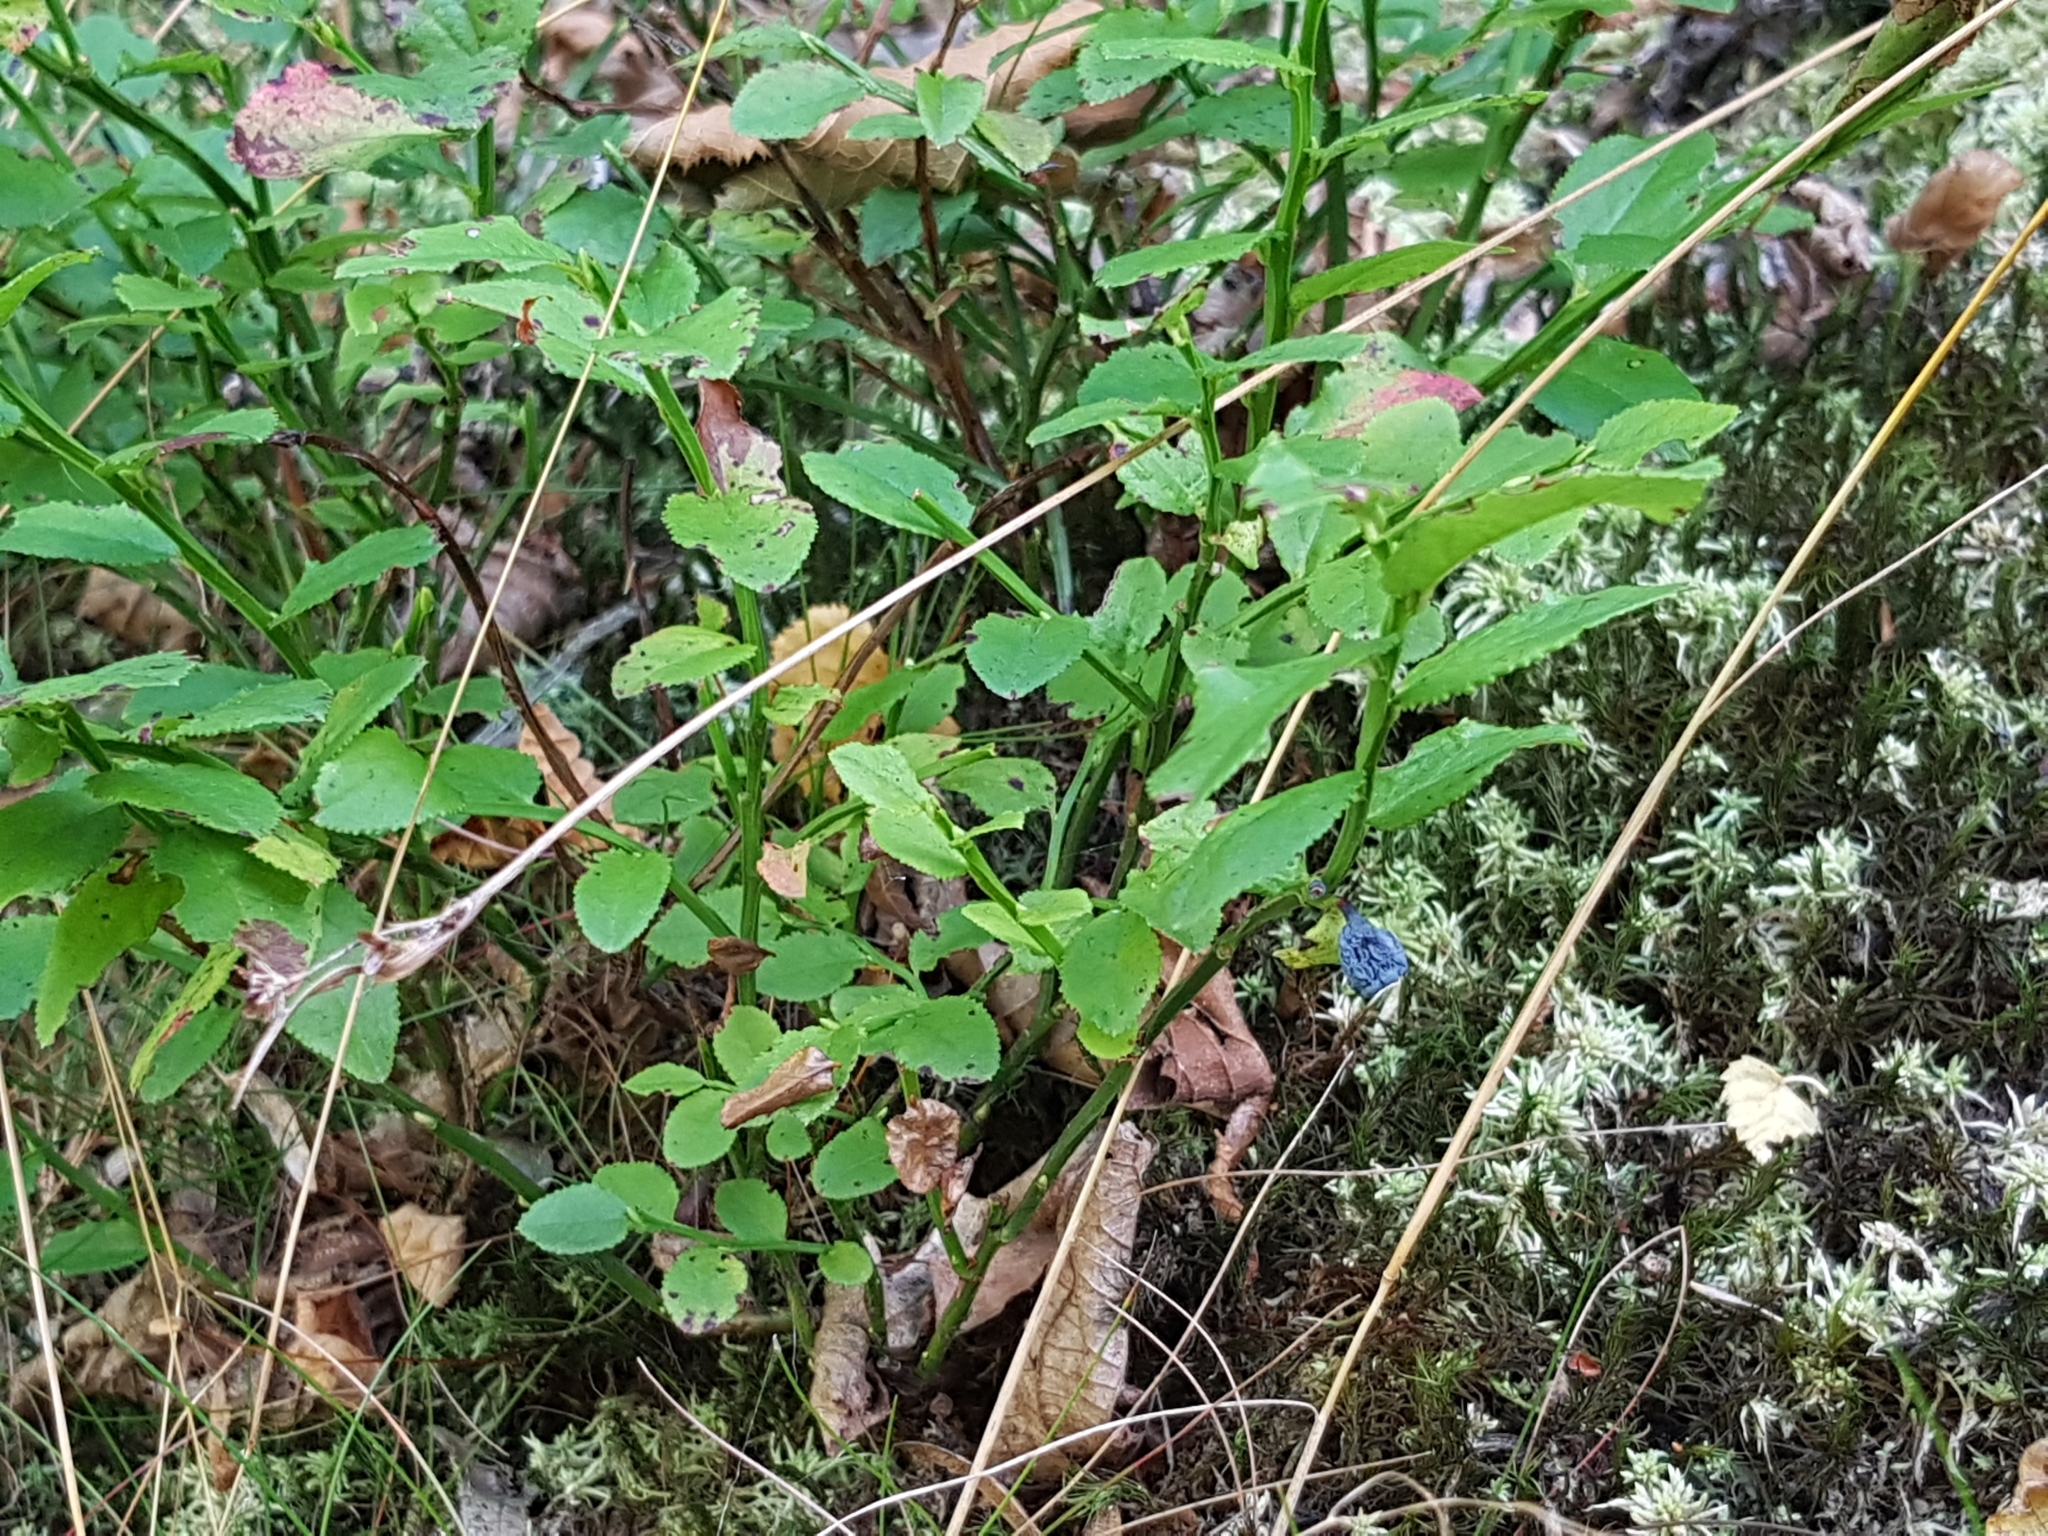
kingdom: Plantae
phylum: Tracheophyta
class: Magnoliopsida
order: Ericales
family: Ericaceae
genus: Vaccinium
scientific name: Vaccinium myrtillus
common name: Bilberry
